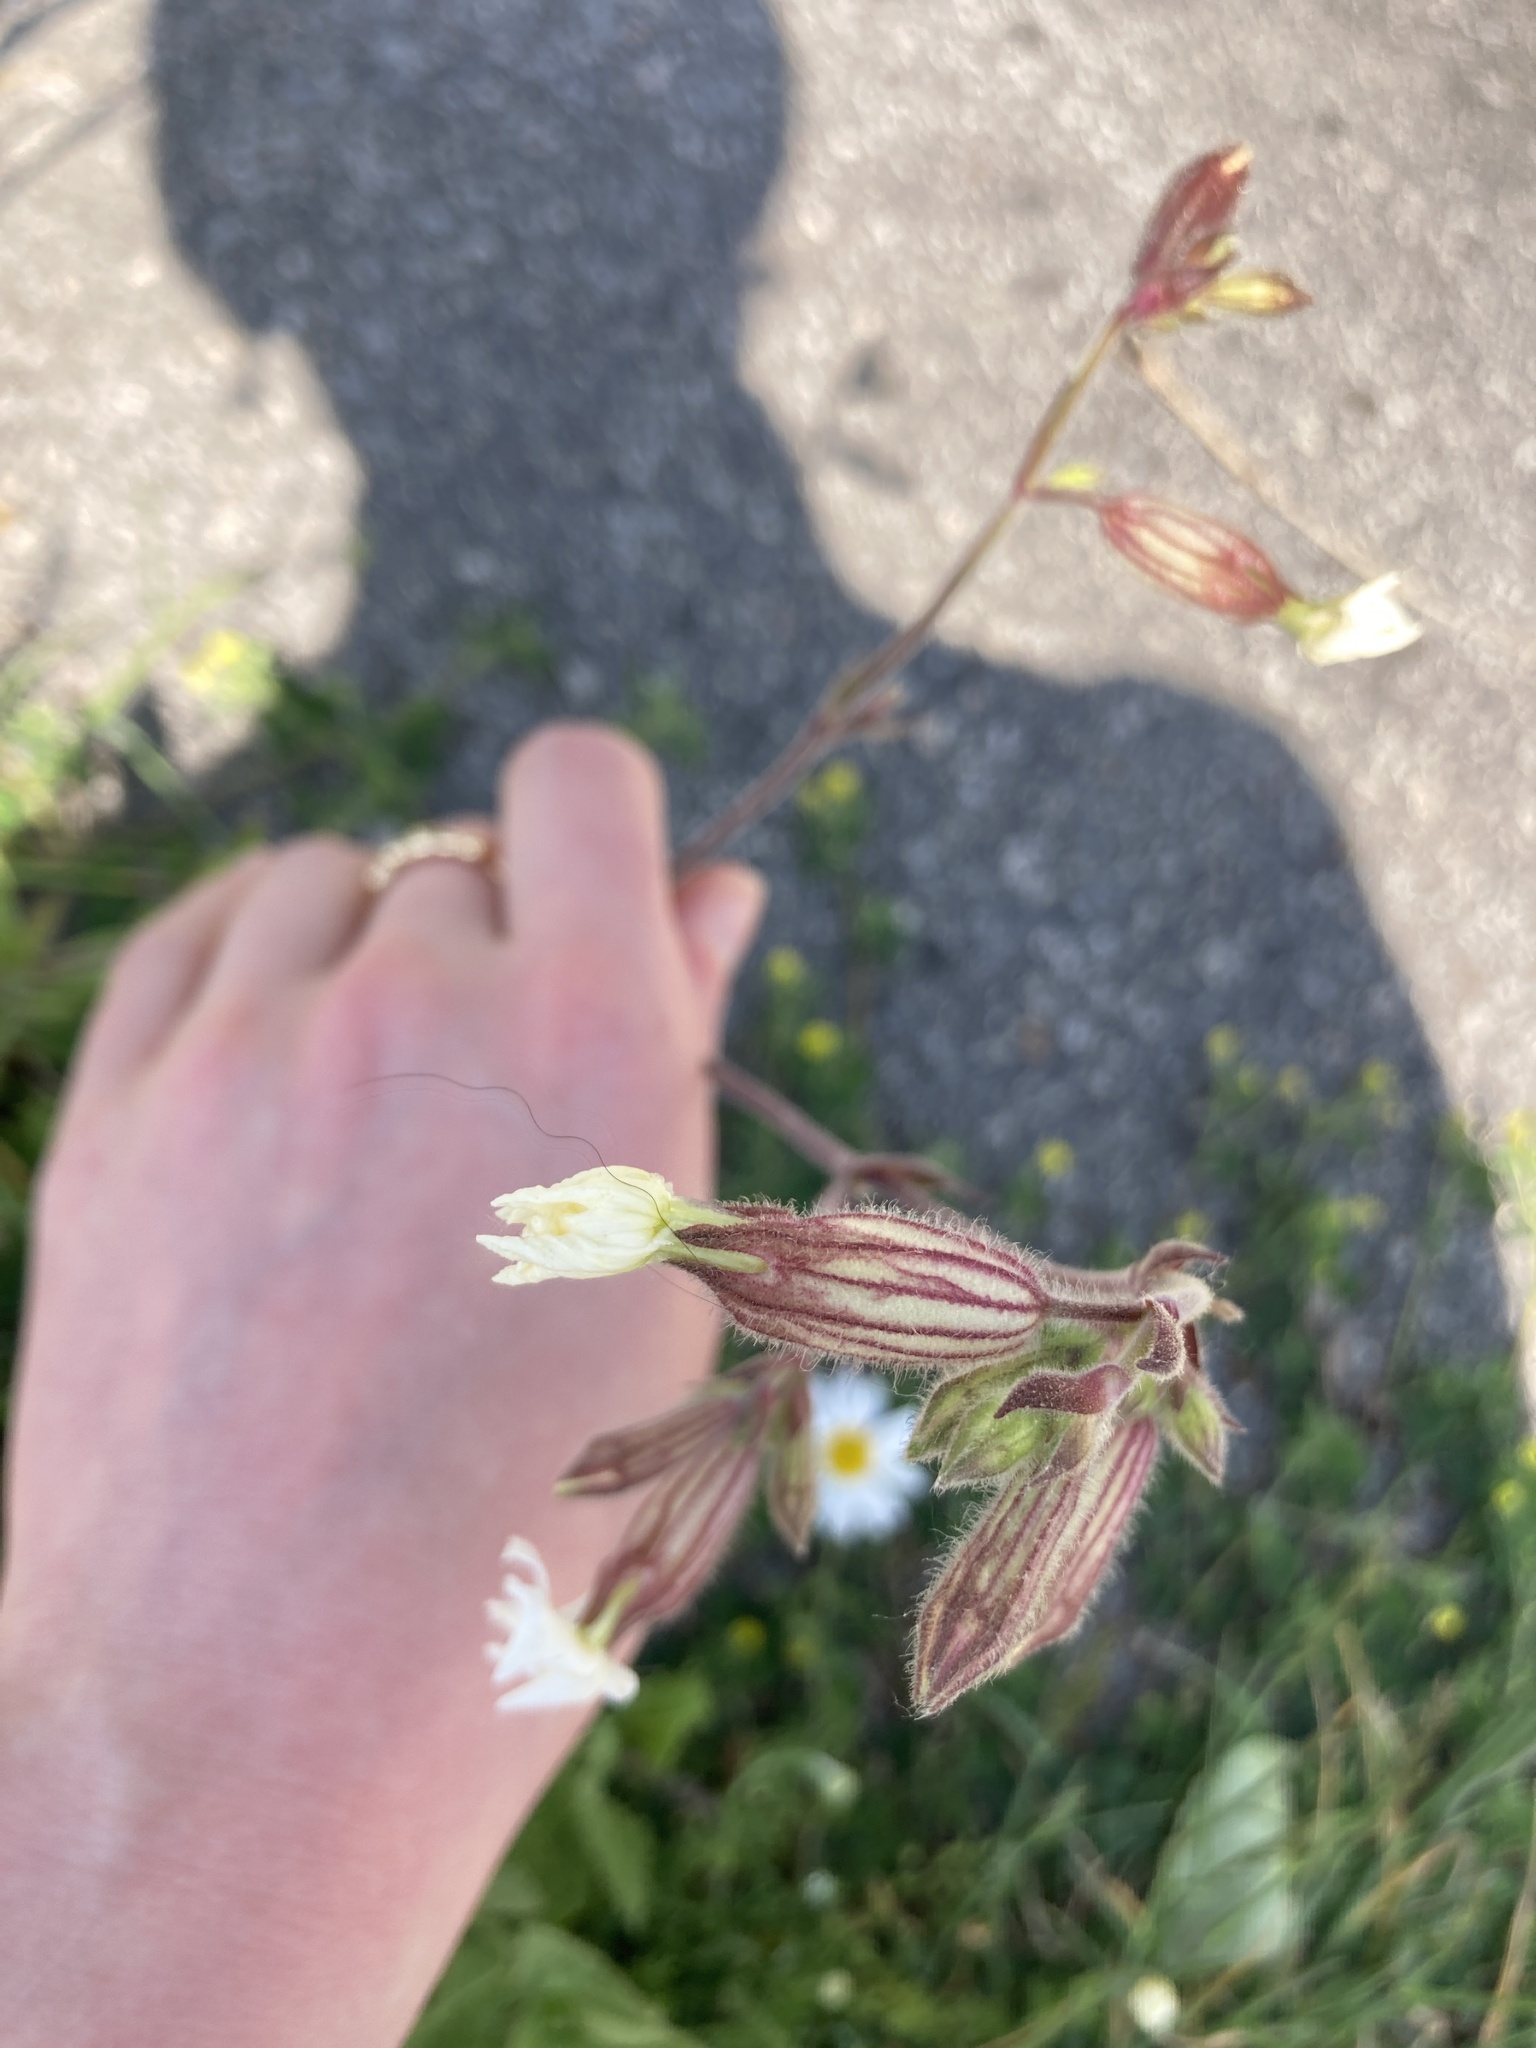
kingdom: Plantae
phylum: Tracheophyta
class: Magnoliopsida
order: Caryophyllales
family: Caryophyllaceae
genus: Silene
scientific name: Silene latifolia
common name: White campion
